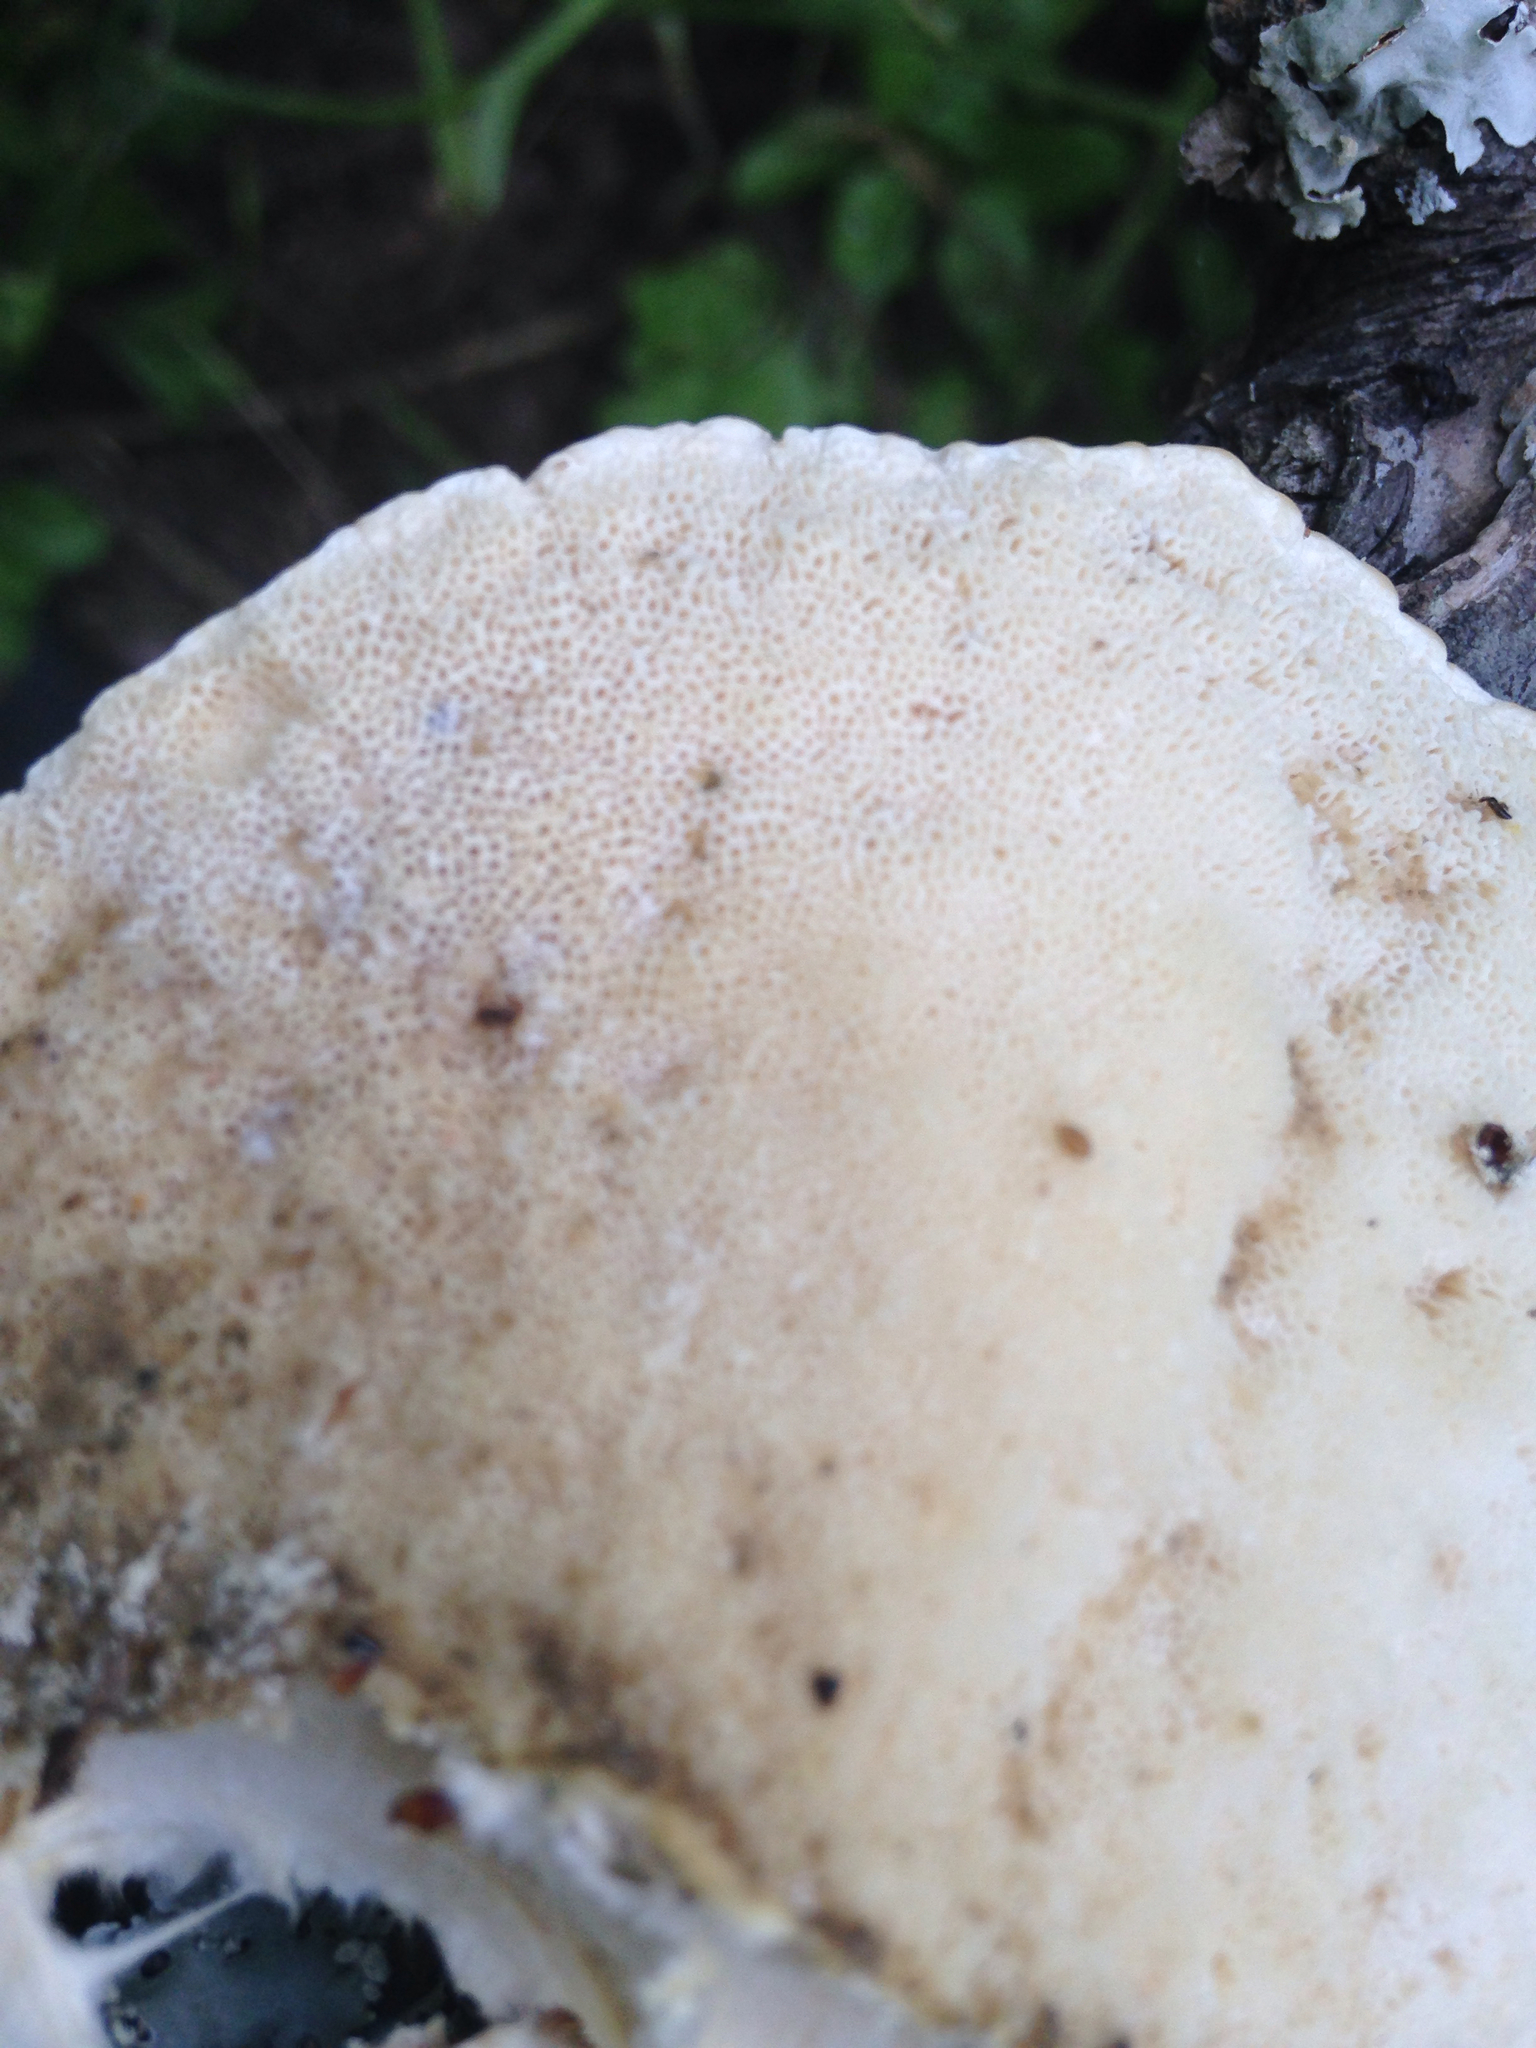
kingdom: Fungi
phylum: Basidiomycota
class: Agaricomycetes
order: Polyporales
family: Polyporaceae
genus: Trametes
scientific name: Trametes cubensis
